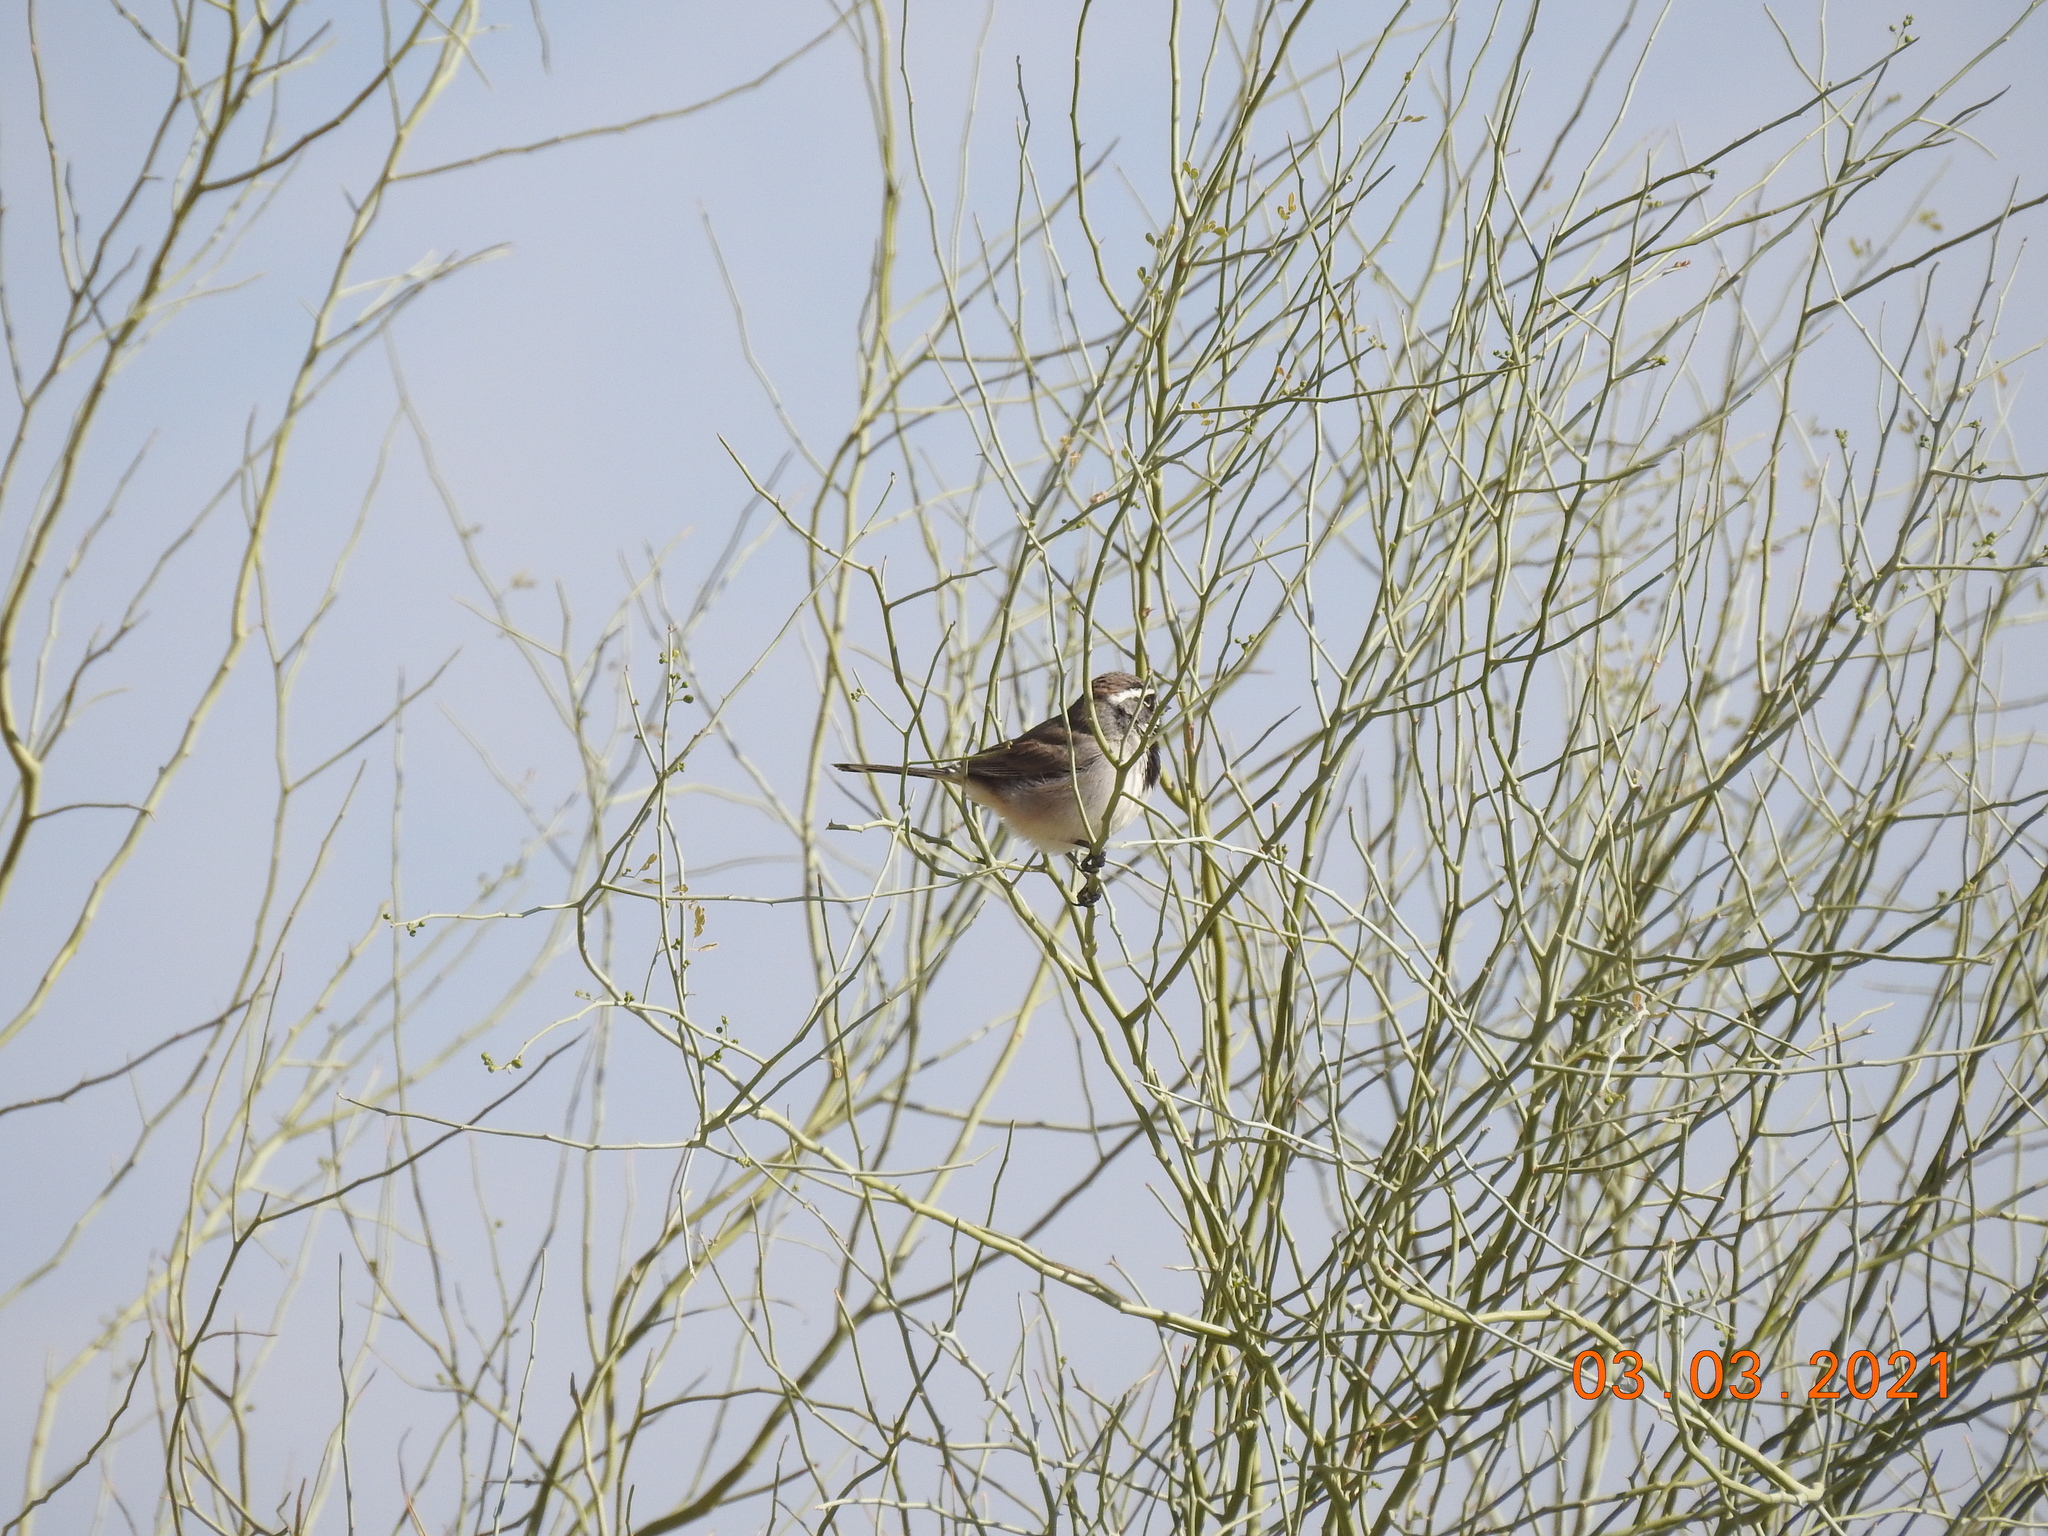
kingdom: Animalia
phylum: Chordata
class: Aves
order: Passeriformes
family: Passerellidae
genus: Amphispiza
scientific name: Amphispiza bilineata
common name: Black-throated sparrow
